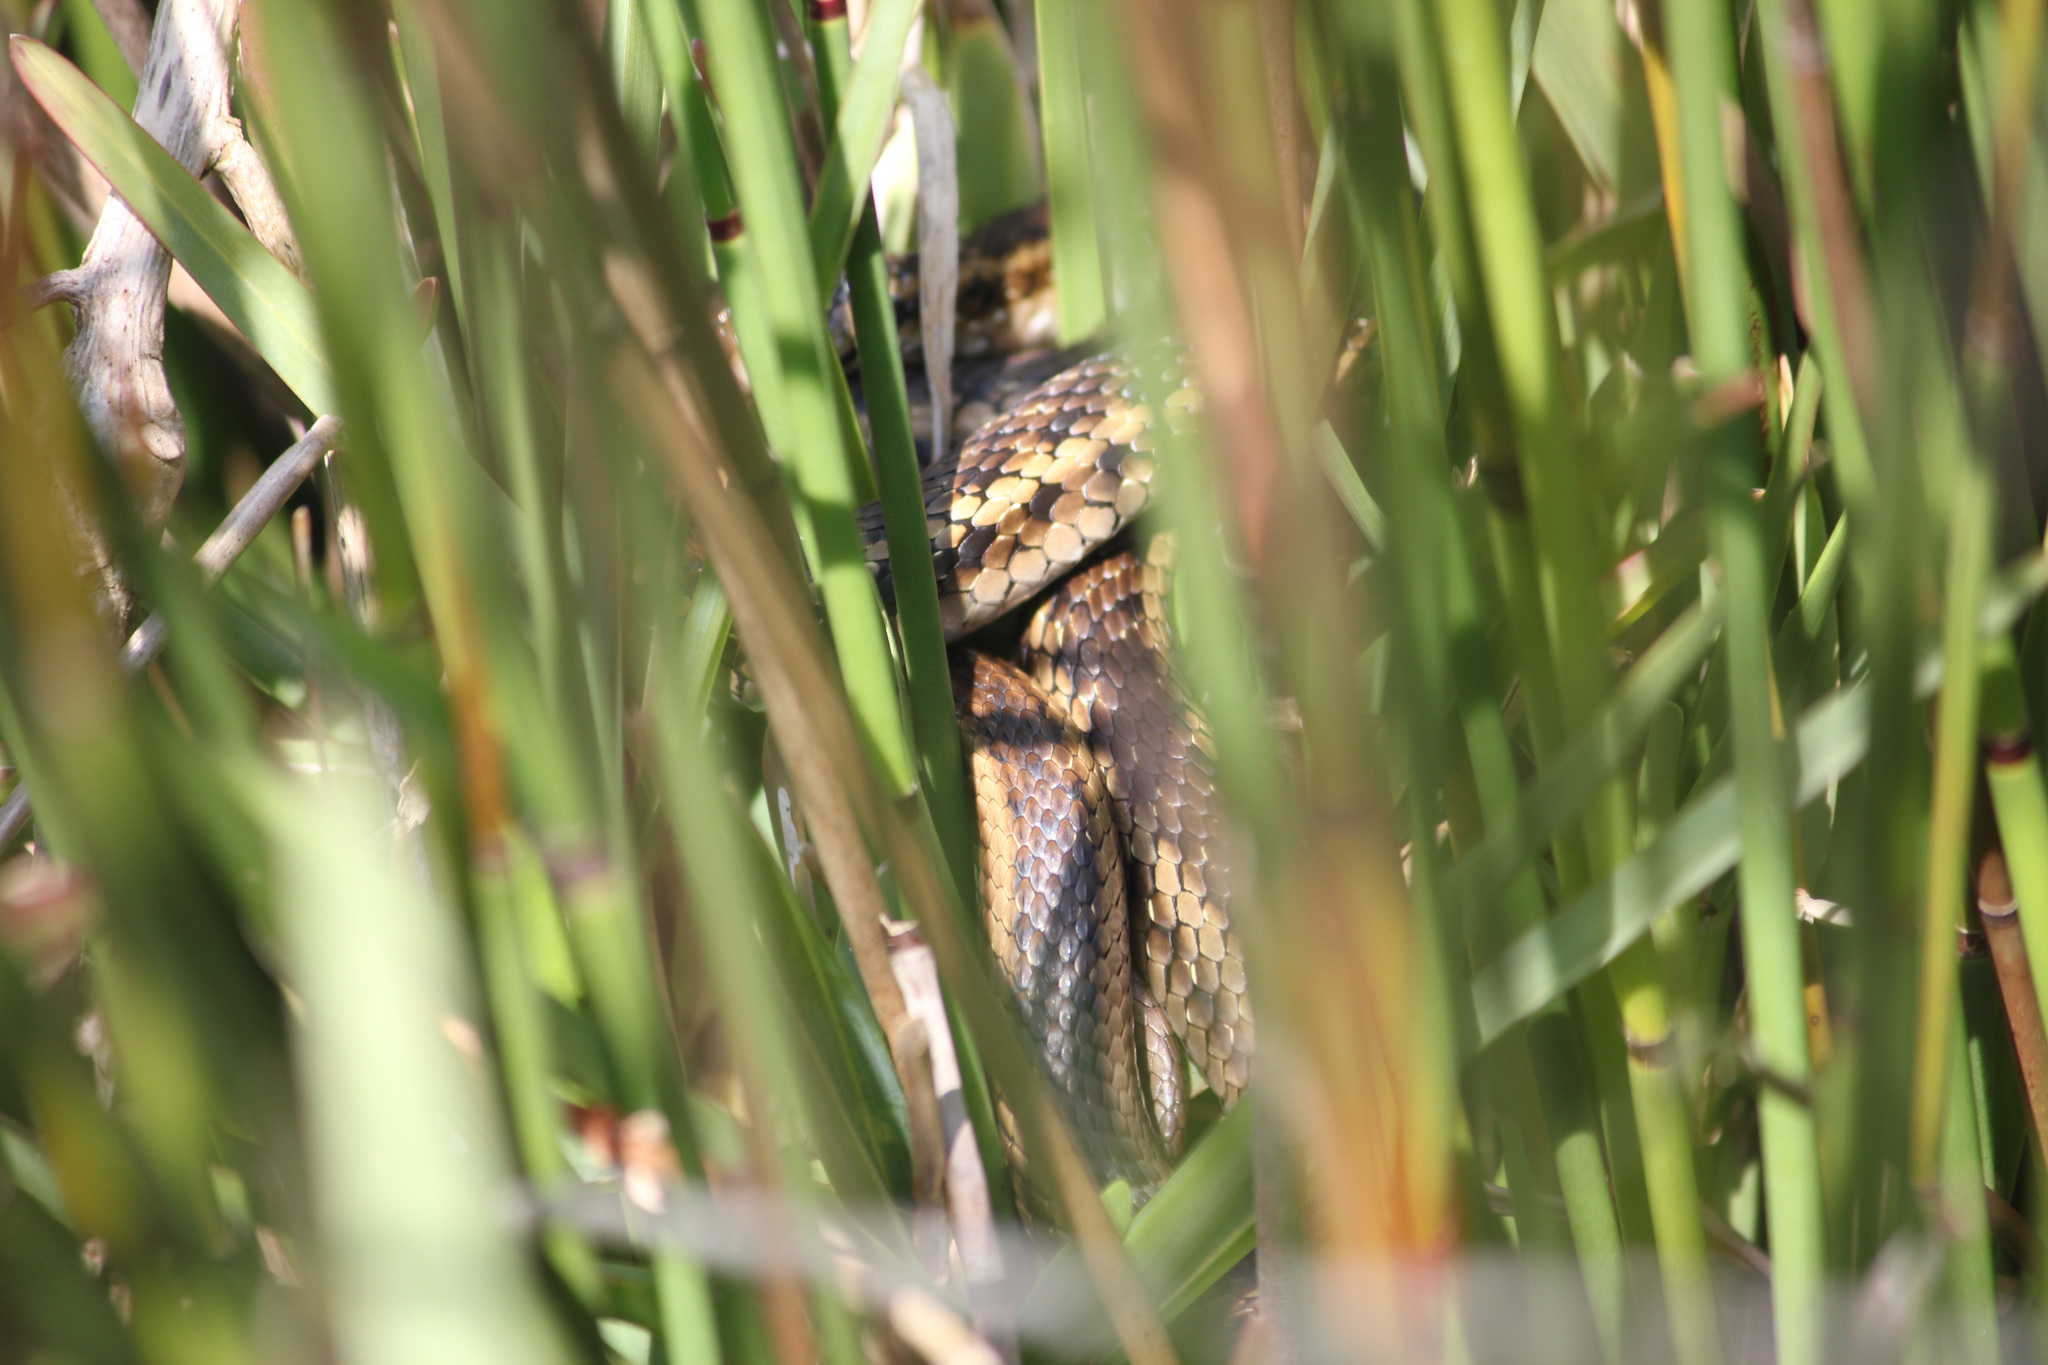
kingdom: Animalia
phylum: Chordata
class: Squamata
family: Pseudoxyrhophiidae
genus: Amplorhinus
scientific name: Amplorhinus multimaculatus
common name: Many-spotted snake
